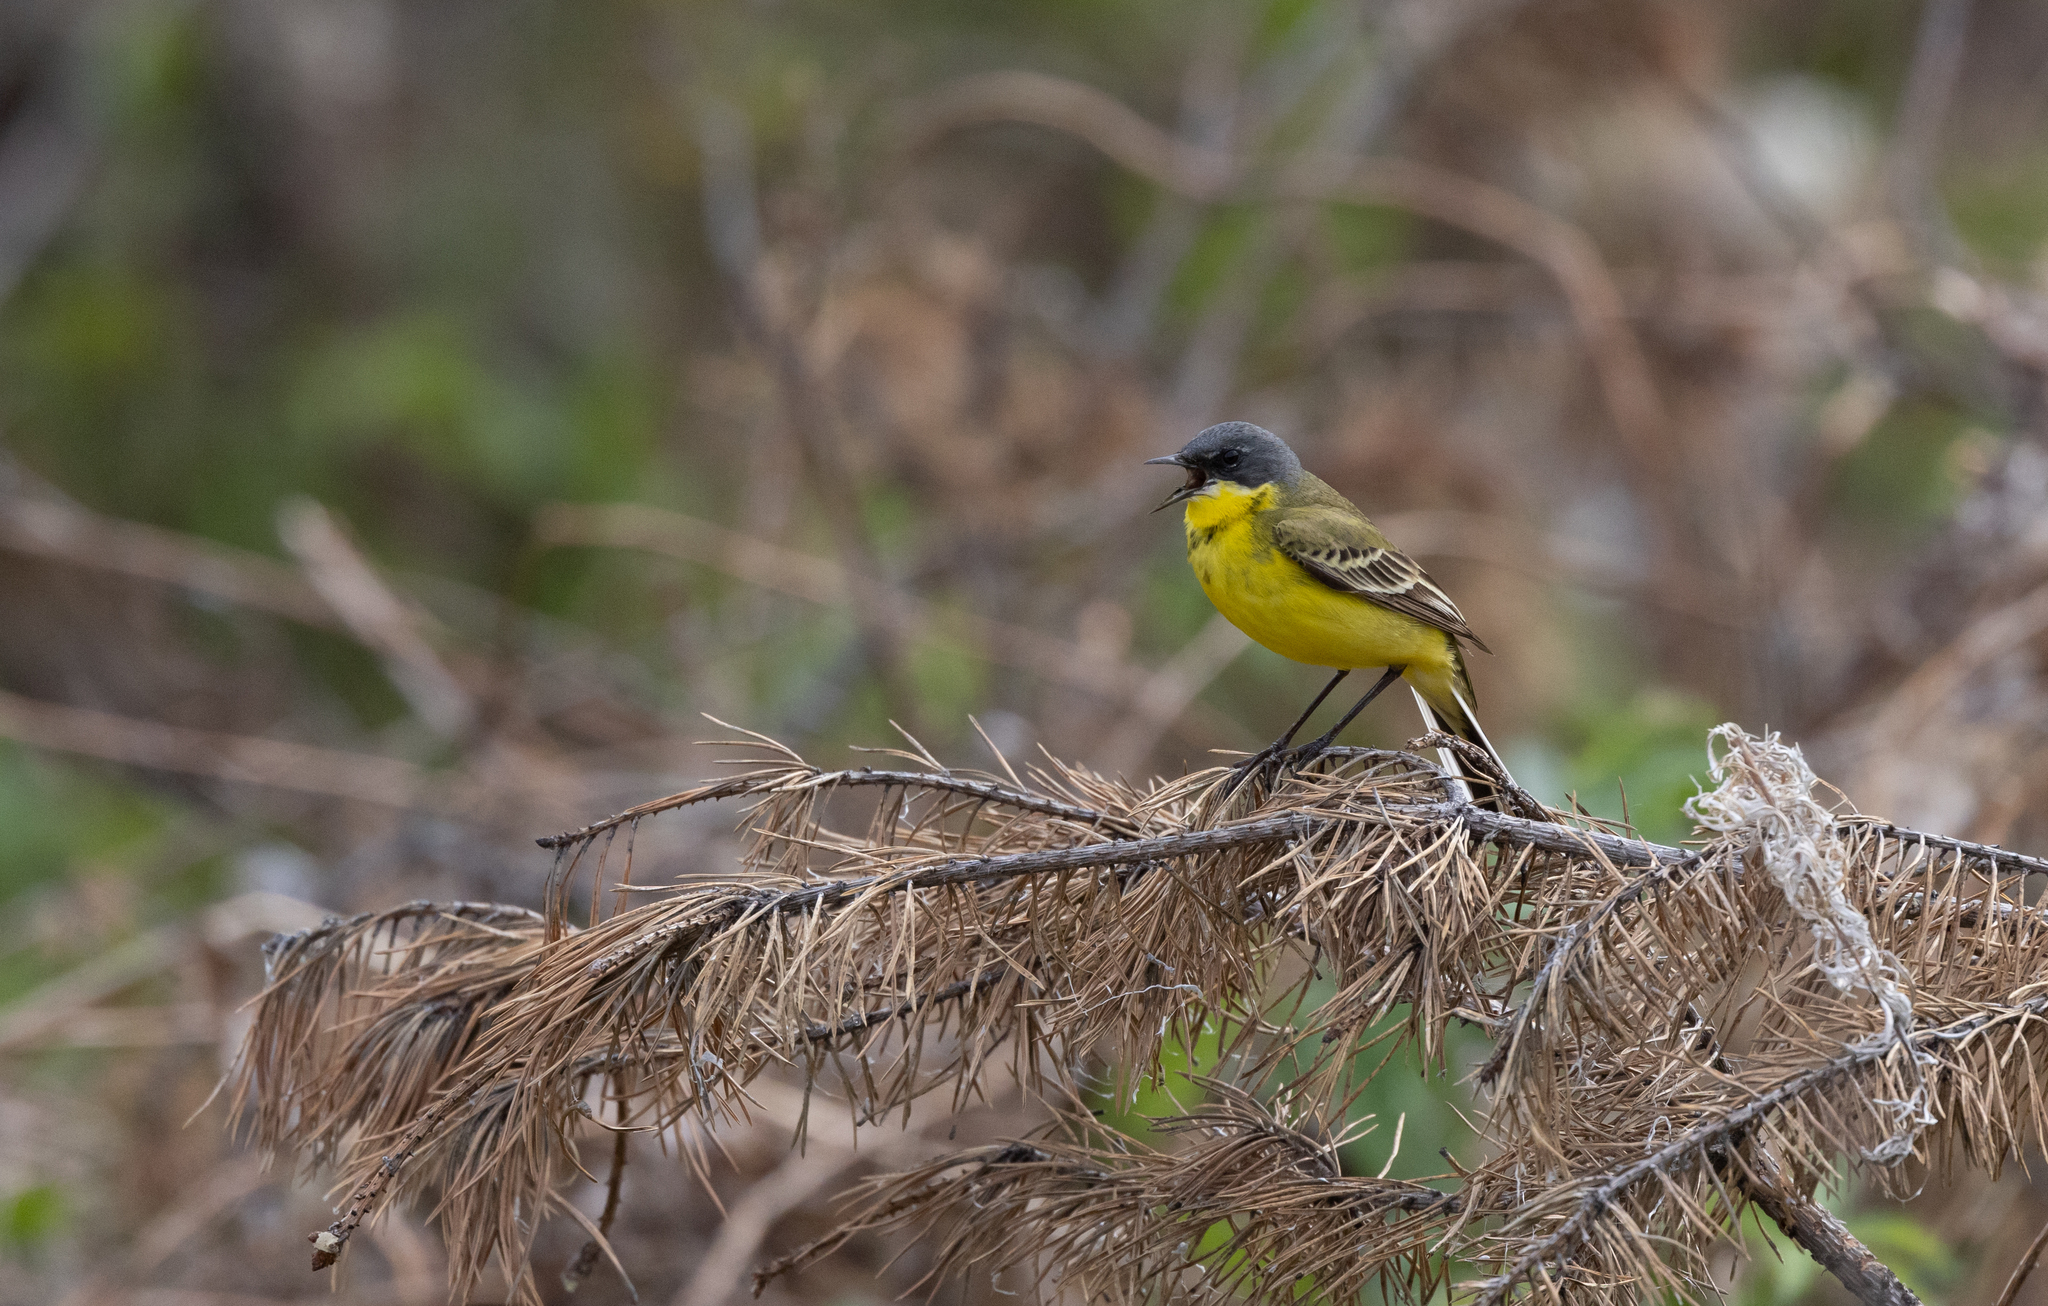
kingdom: Animalia
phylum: Chordata
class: Aves
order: Passeriformes
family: Motacillidae
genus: Motacilla
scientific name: Motacilla flava
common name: Western yellow wagtail
